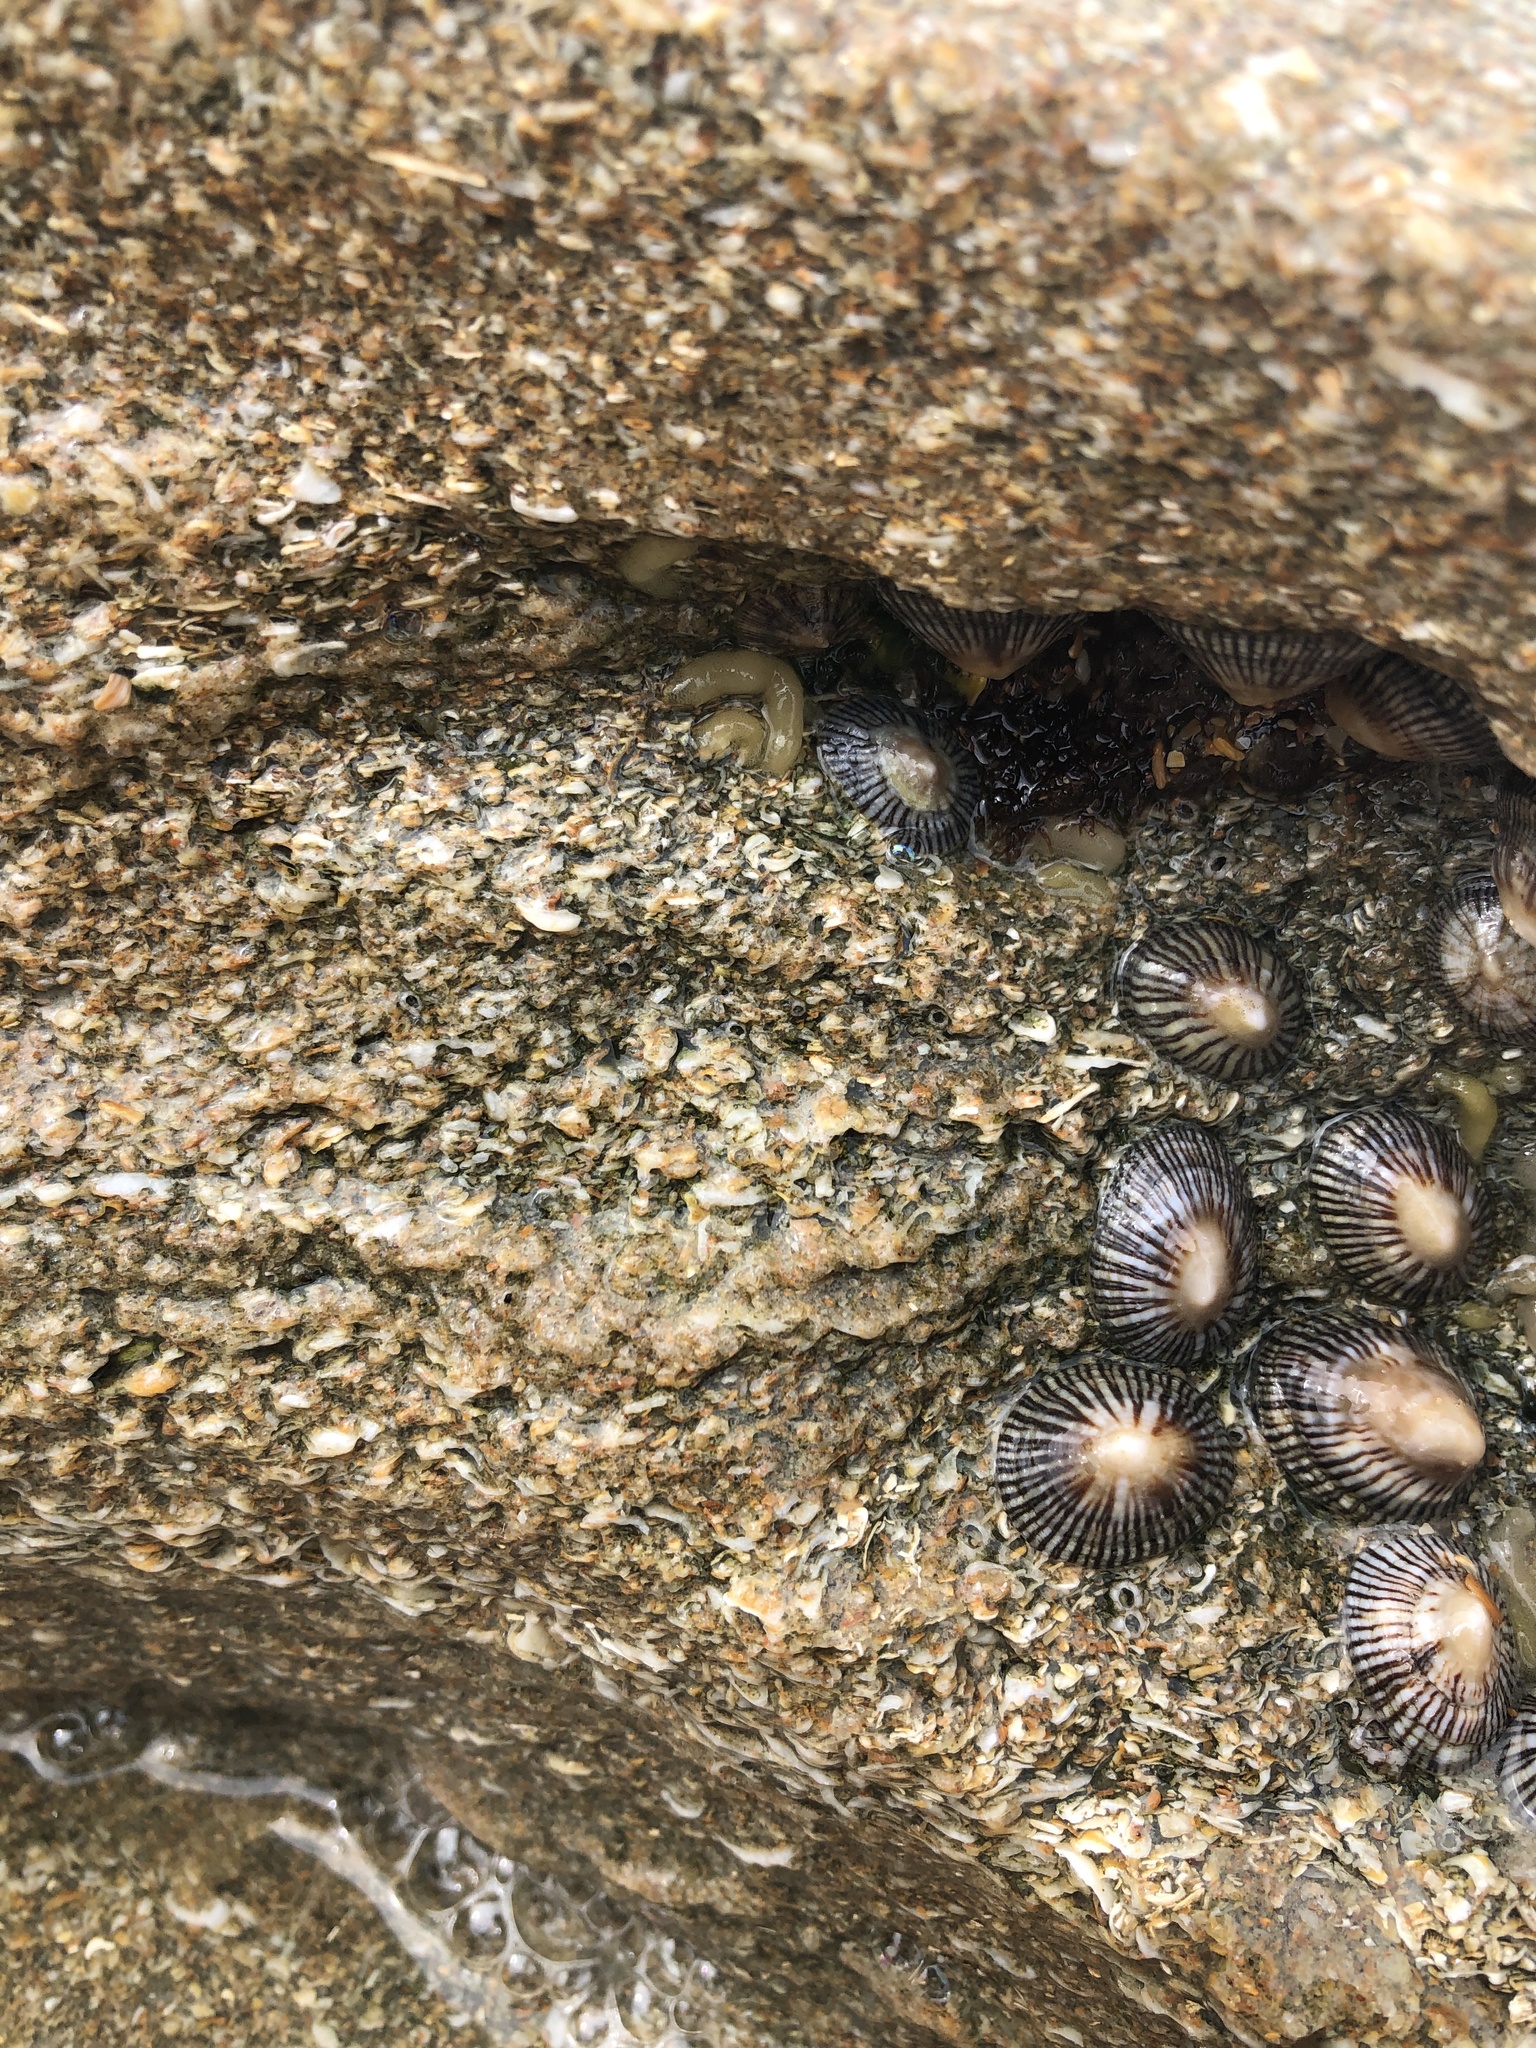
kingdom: Animalia
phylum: Mollusca
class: Gastropoda
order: Siphonariida
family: Siphonariidae
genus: Siphonaria
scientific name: Siphonaria naufragum
